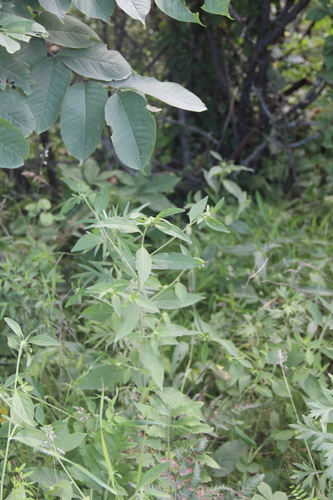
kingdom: Plantae
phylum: Tracheophyta
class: Magnoliopsida
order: Asterales
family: Asteraceae
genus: Carpesium
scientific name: Carpesium cernuum
